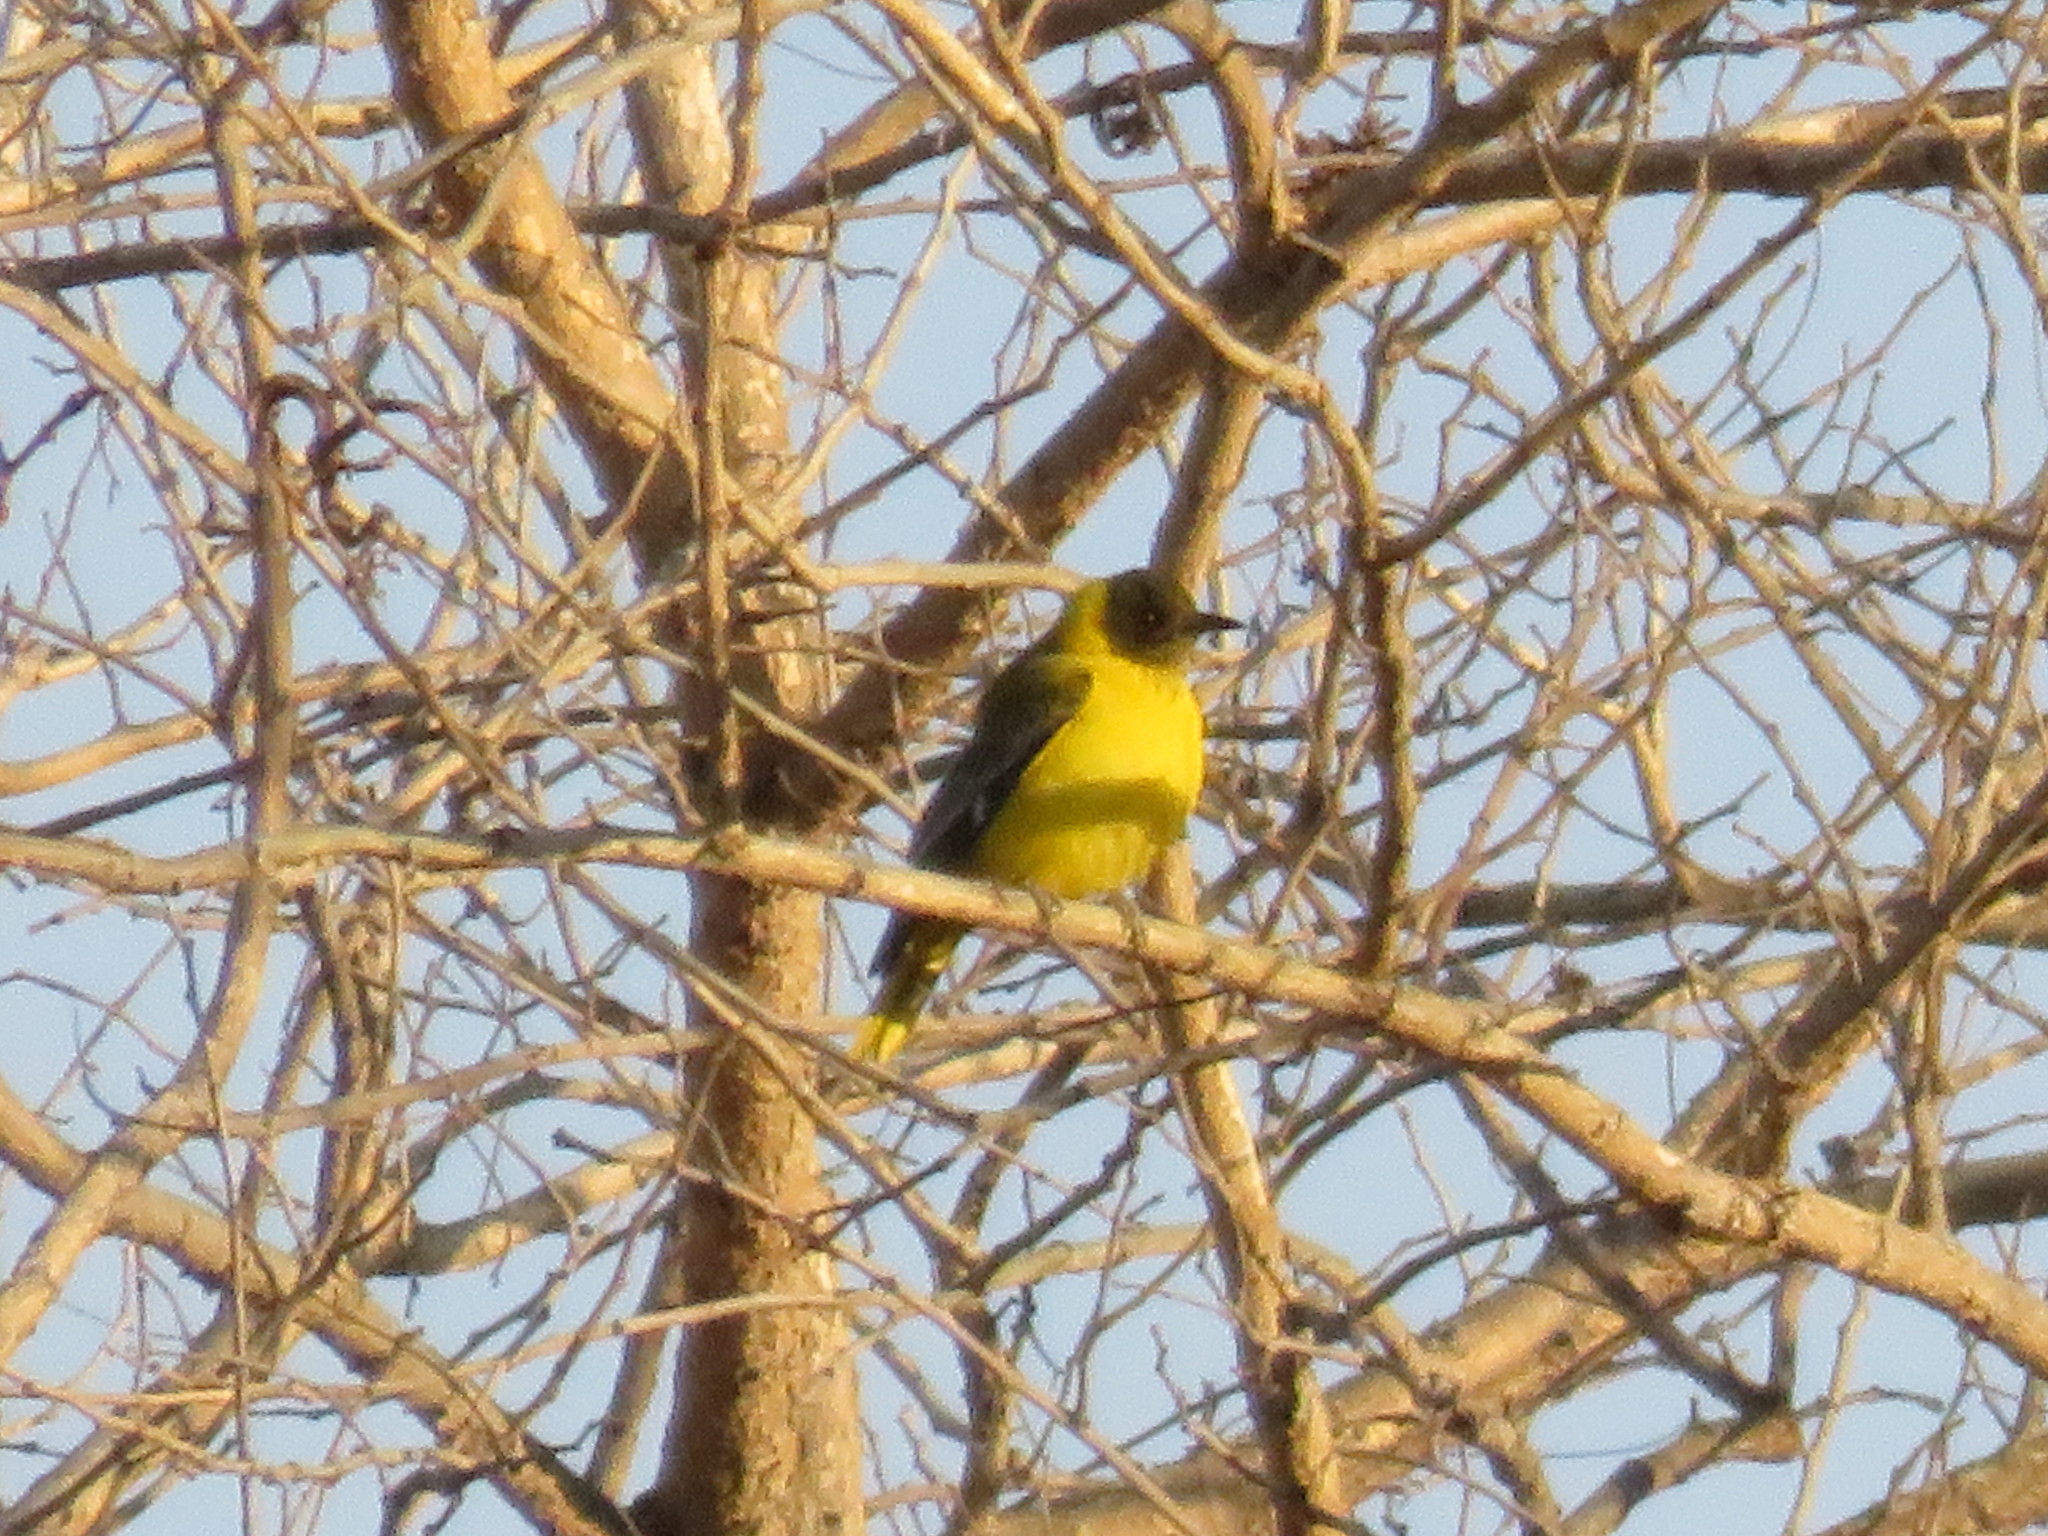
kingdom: Animalia
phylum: Chordata
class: Aves
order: Passeriformes
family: Oriolidae
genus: Oriolus
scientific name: Oriolus larvatus
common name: Black-headed oriole
